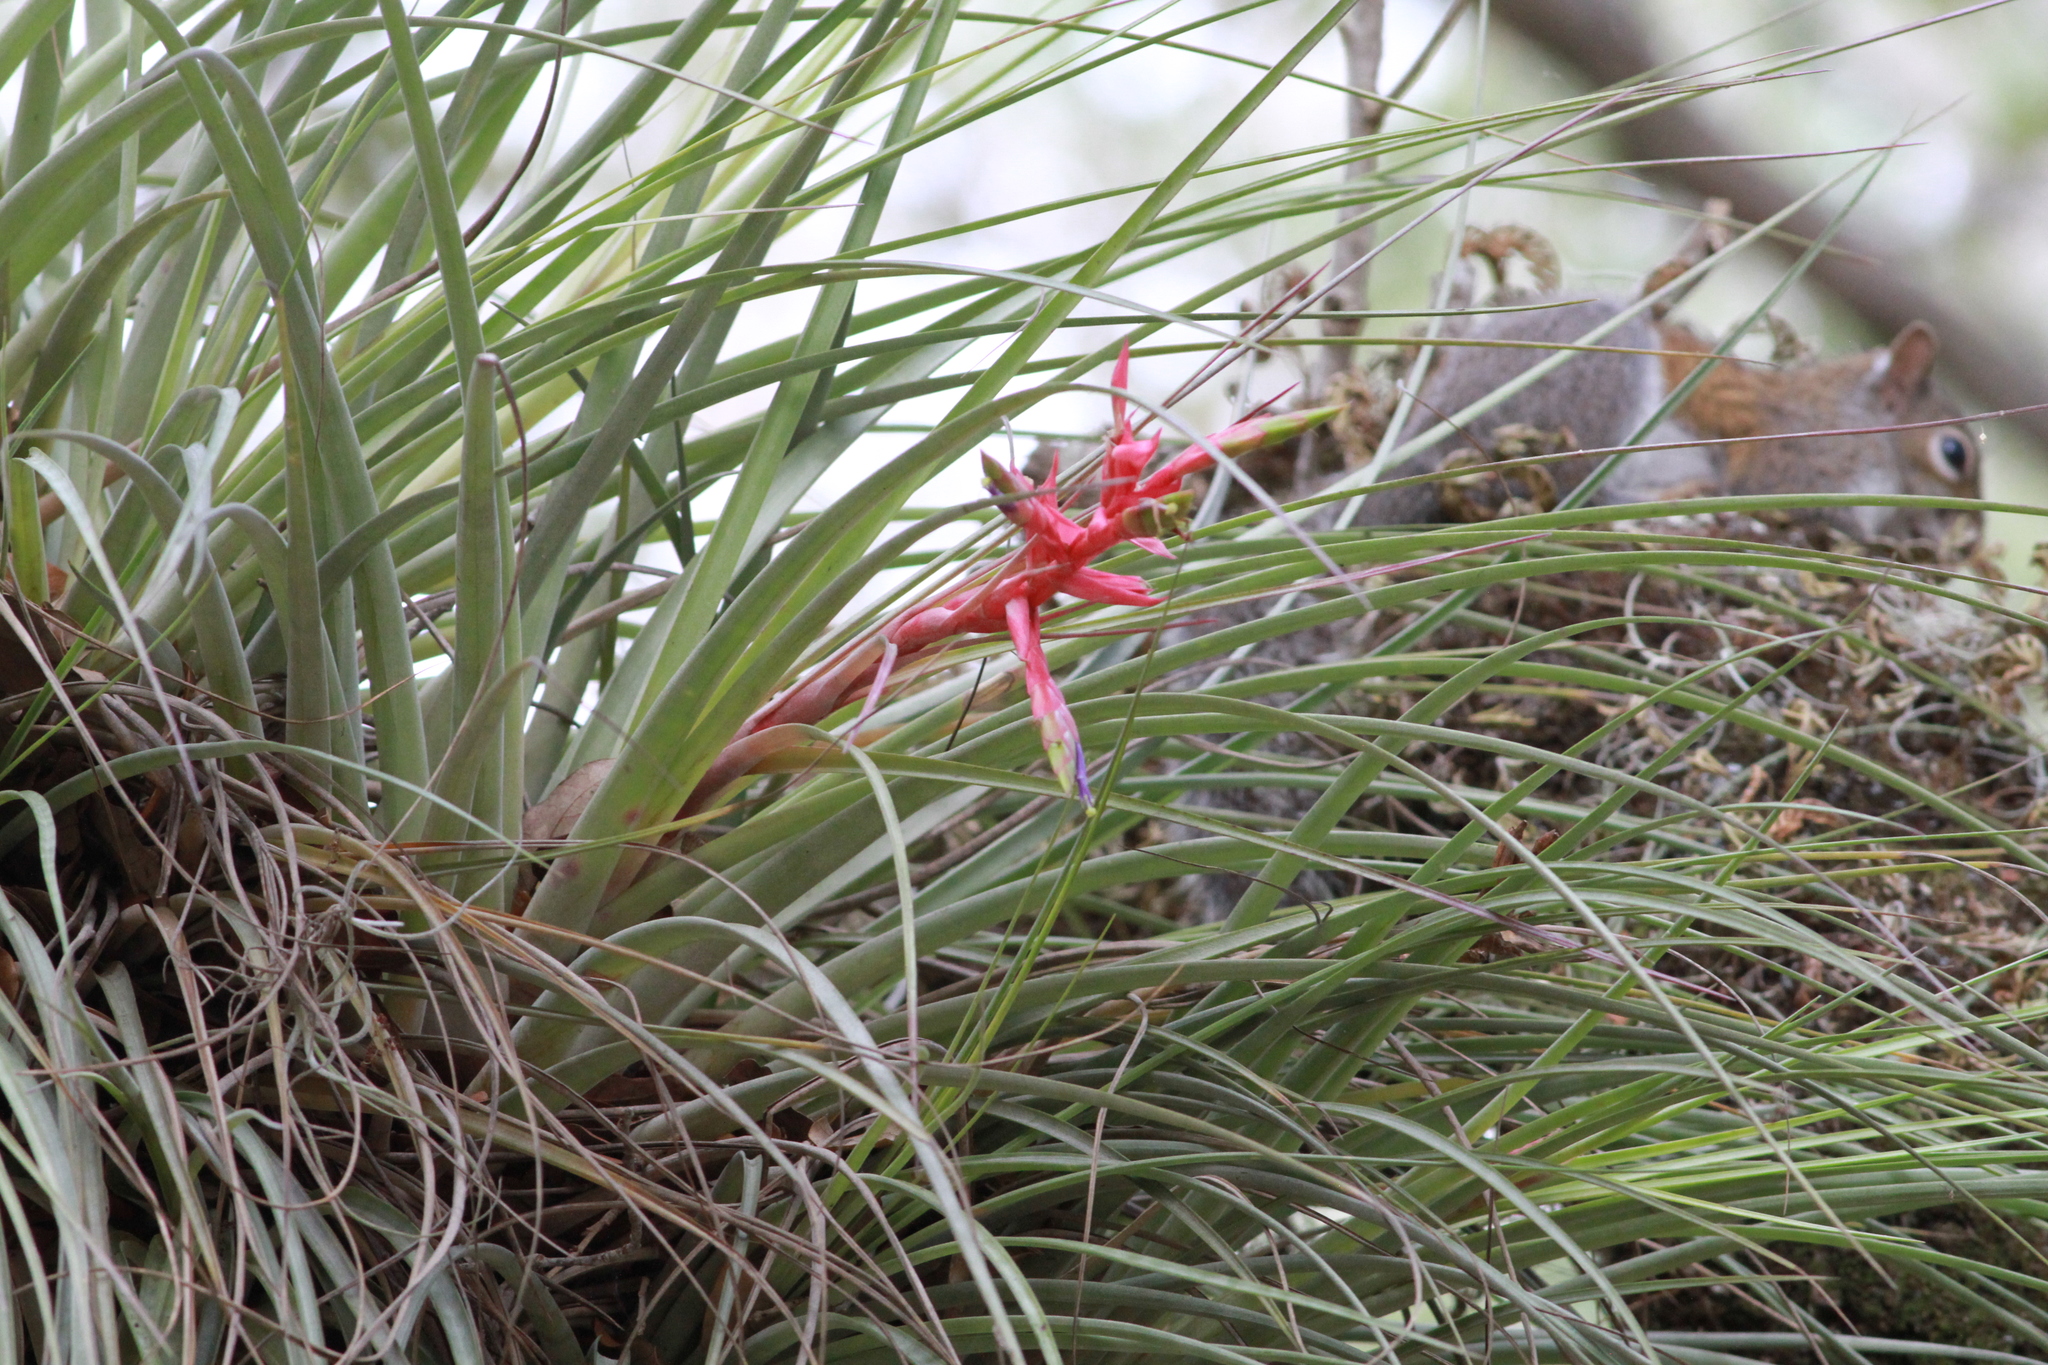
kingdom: Plantae
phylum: Tracheophyta
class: Liliopsida
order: Poales
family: Bromeliaceae
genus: Tillandsia
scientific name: Tillandsia fasciculata
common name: Giant airplant
